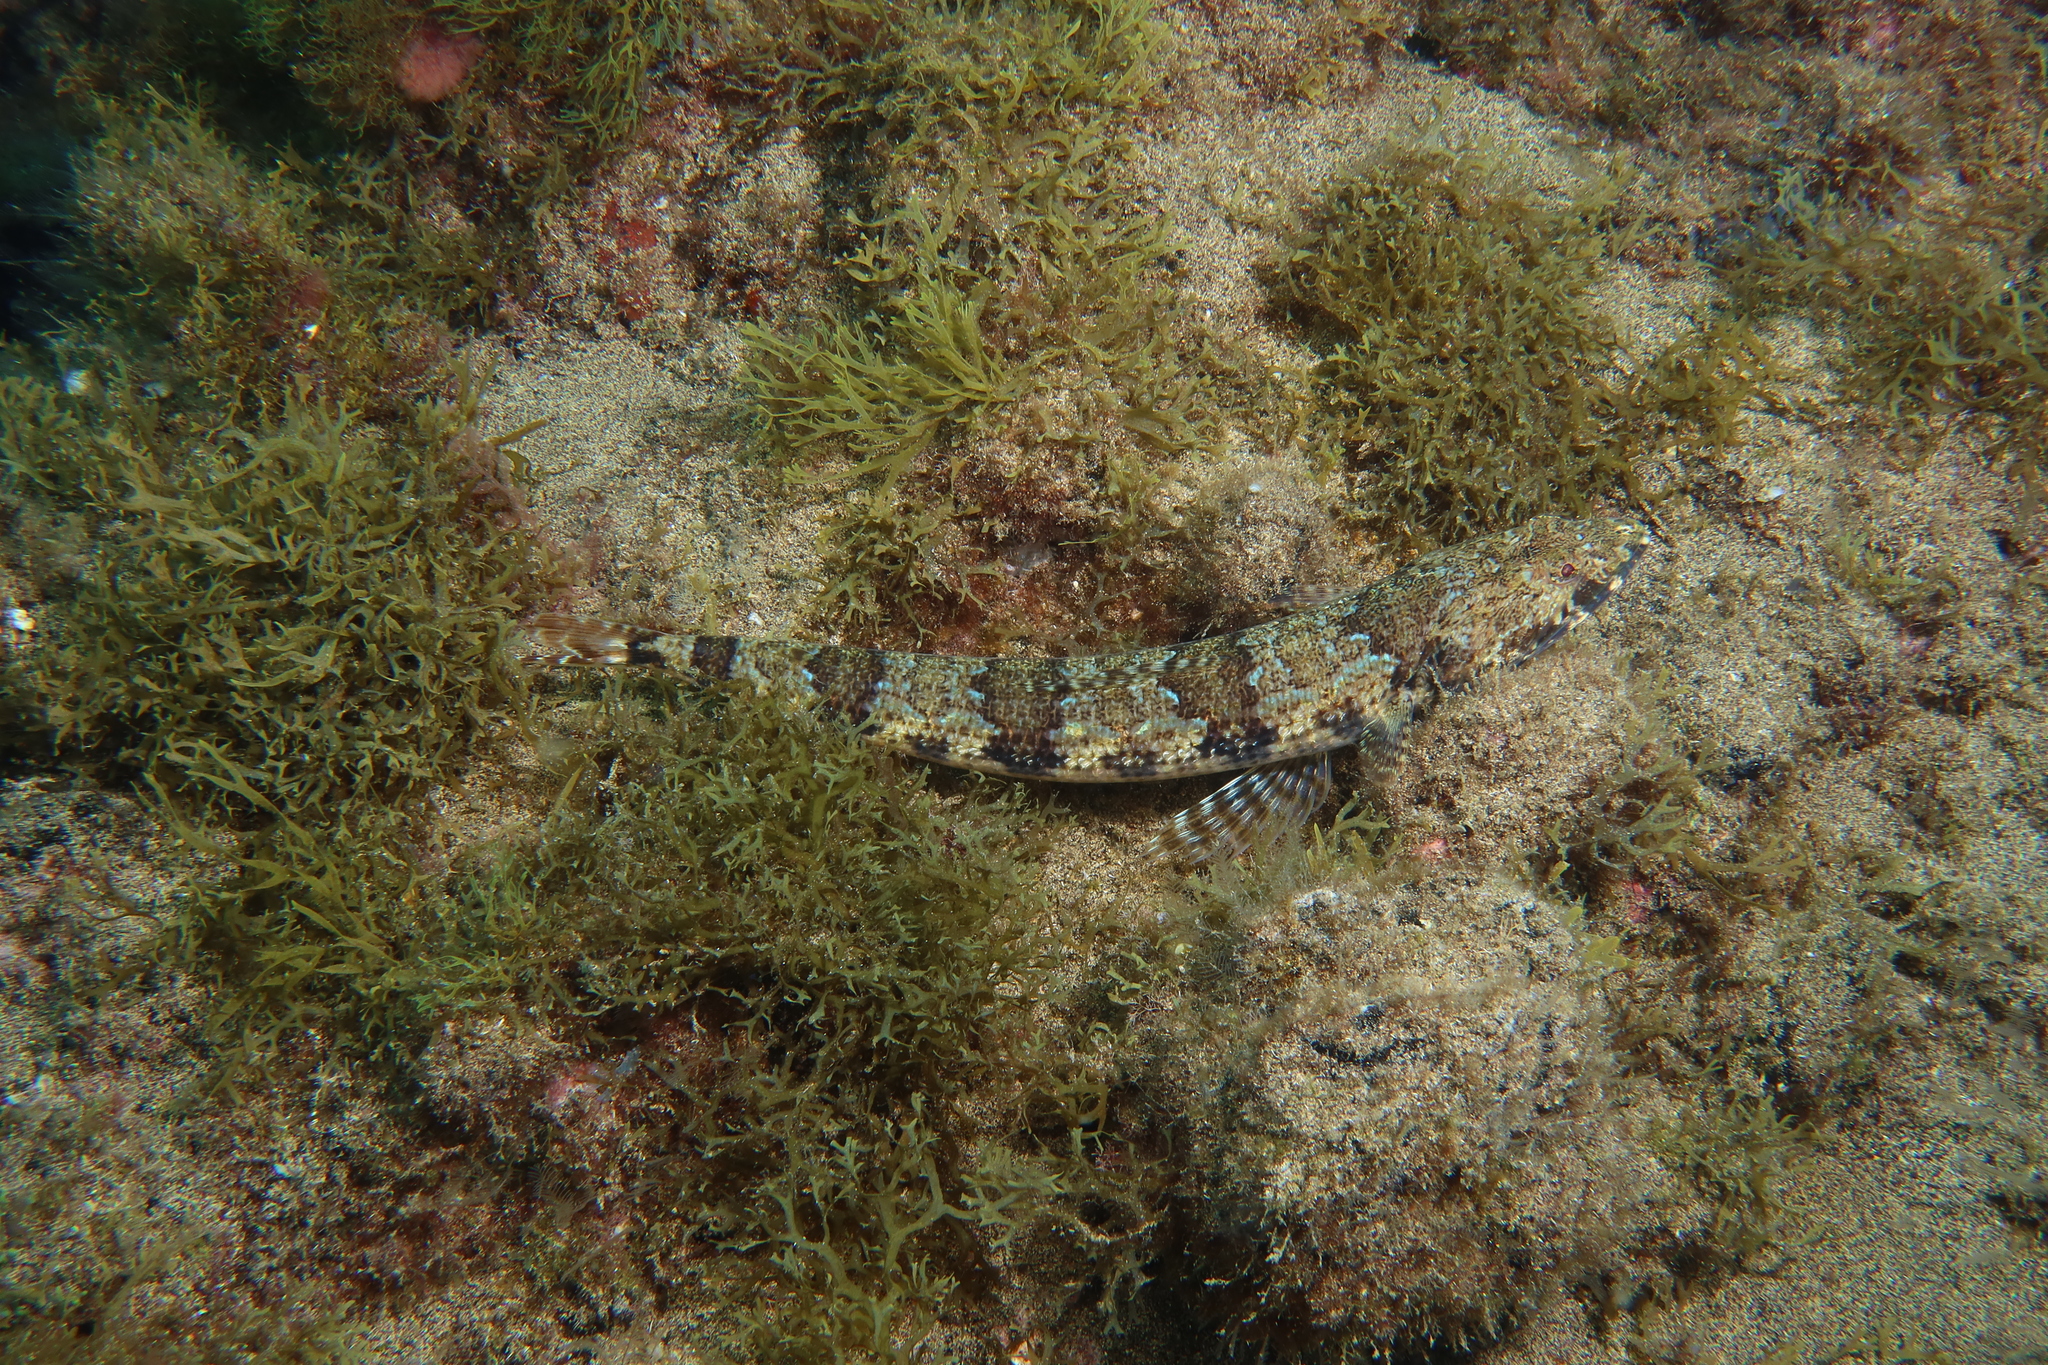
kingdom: Animalia
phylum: Chordata
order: Aulopiformes
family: Synodontidae
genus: Synodus
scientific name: Synodus synodus
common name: Red lizardfish
